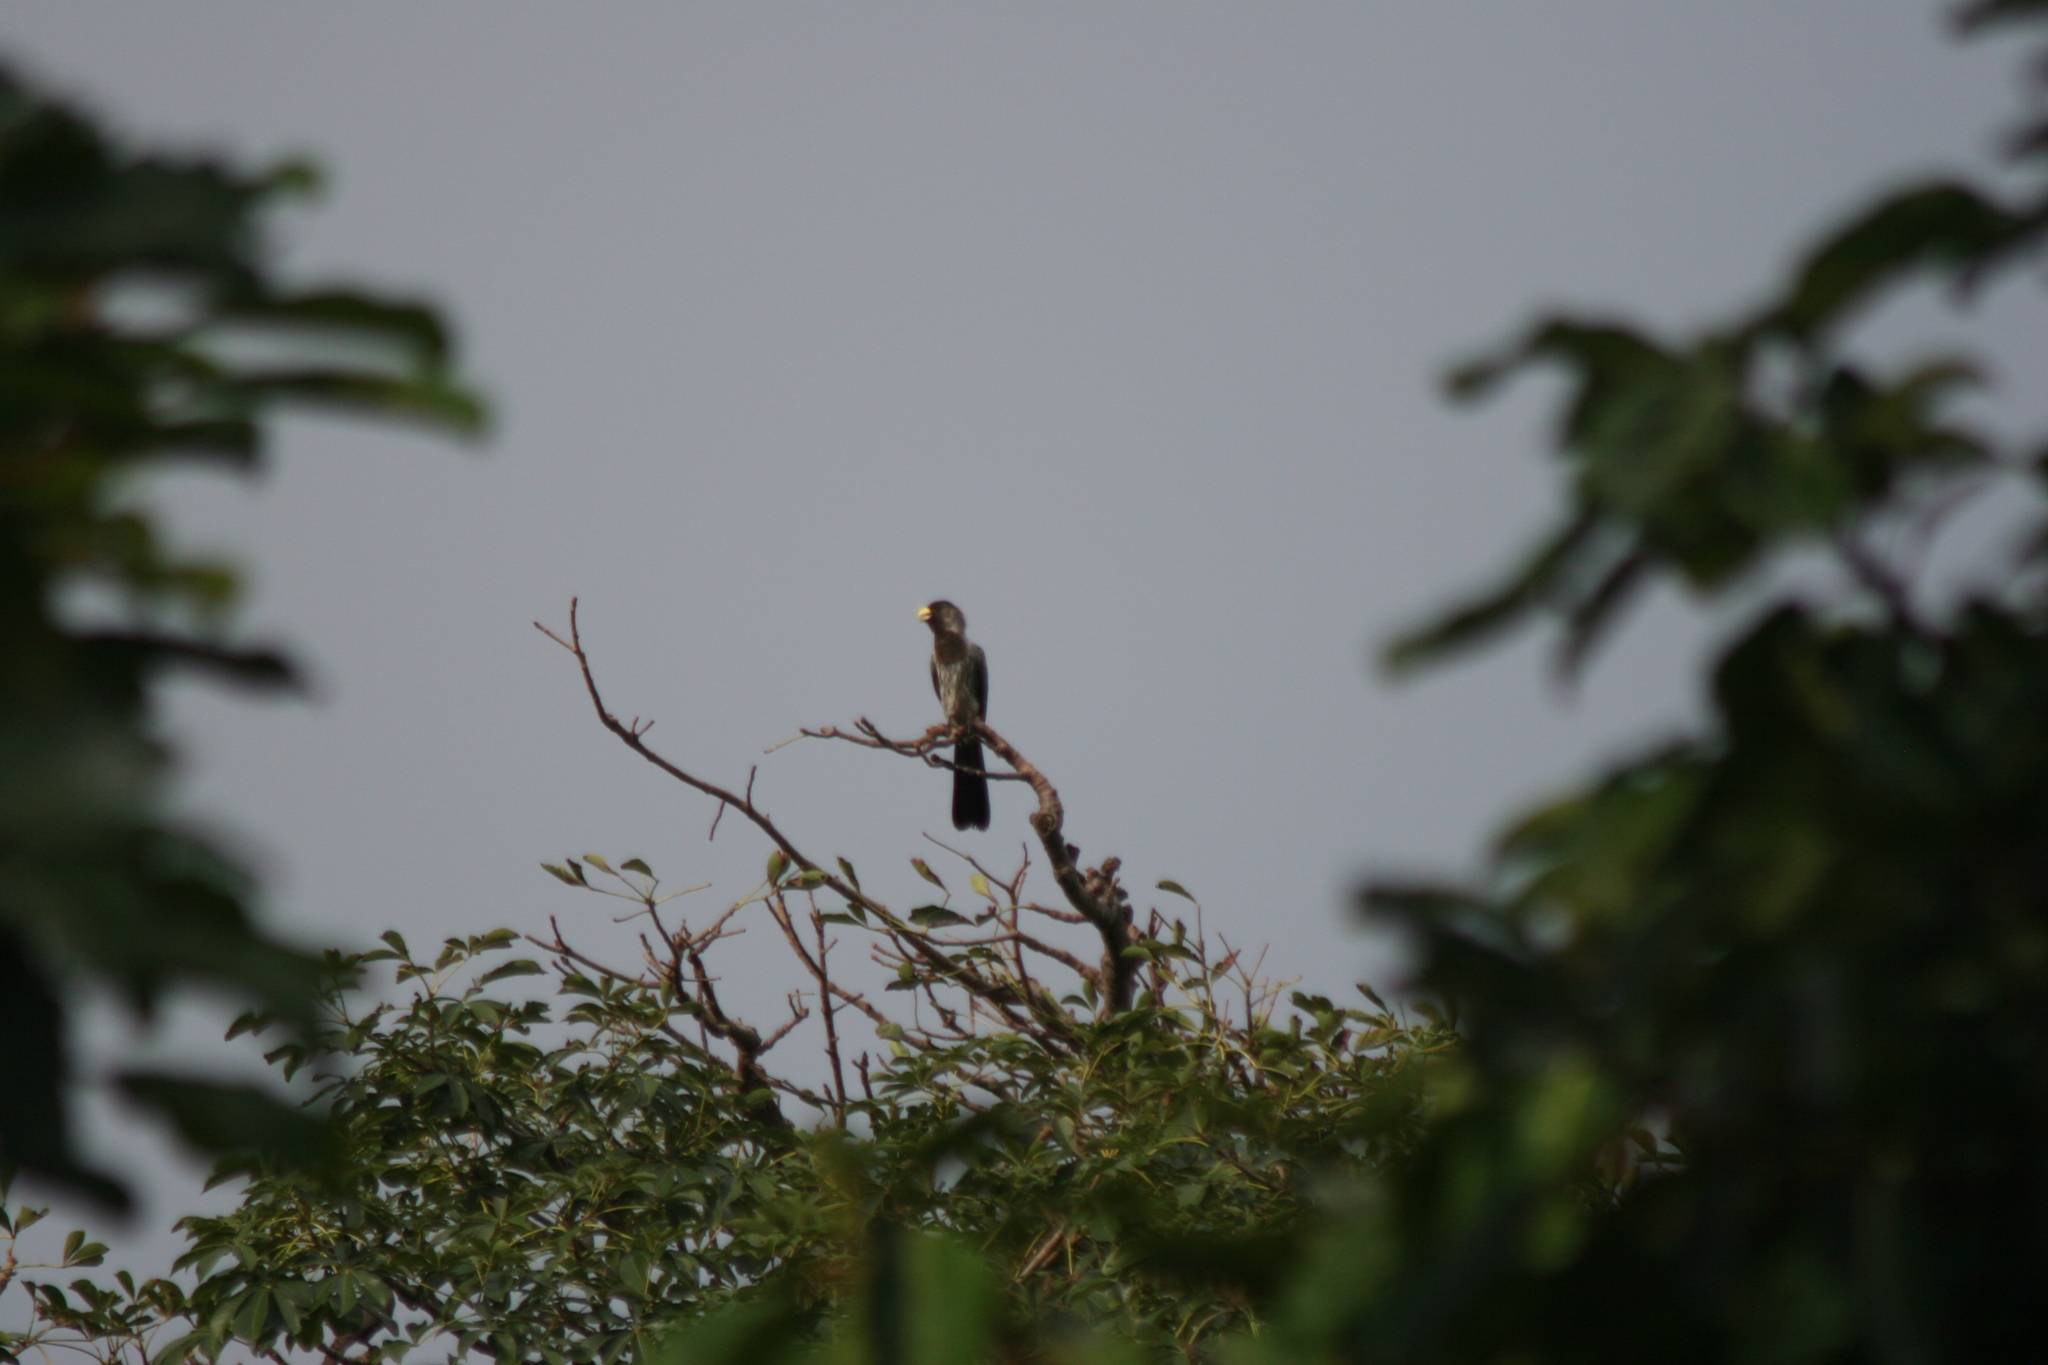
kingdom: Animalia
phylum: Chordata
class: Aves
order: Musophagiformes
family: Musophagidae
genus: Crinifer
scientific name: Crinifer piscator
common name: Western plantain-eater
